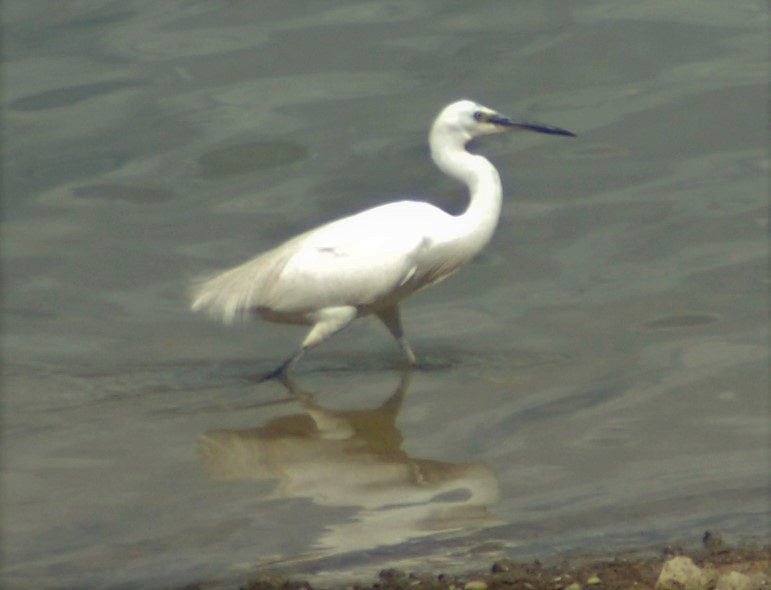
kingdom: Animalia
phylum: Chordata
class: Aves
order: Pelecaniformes
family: Ardeidae
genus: Egretta
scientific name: Egretta garzetta
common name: Little egret
